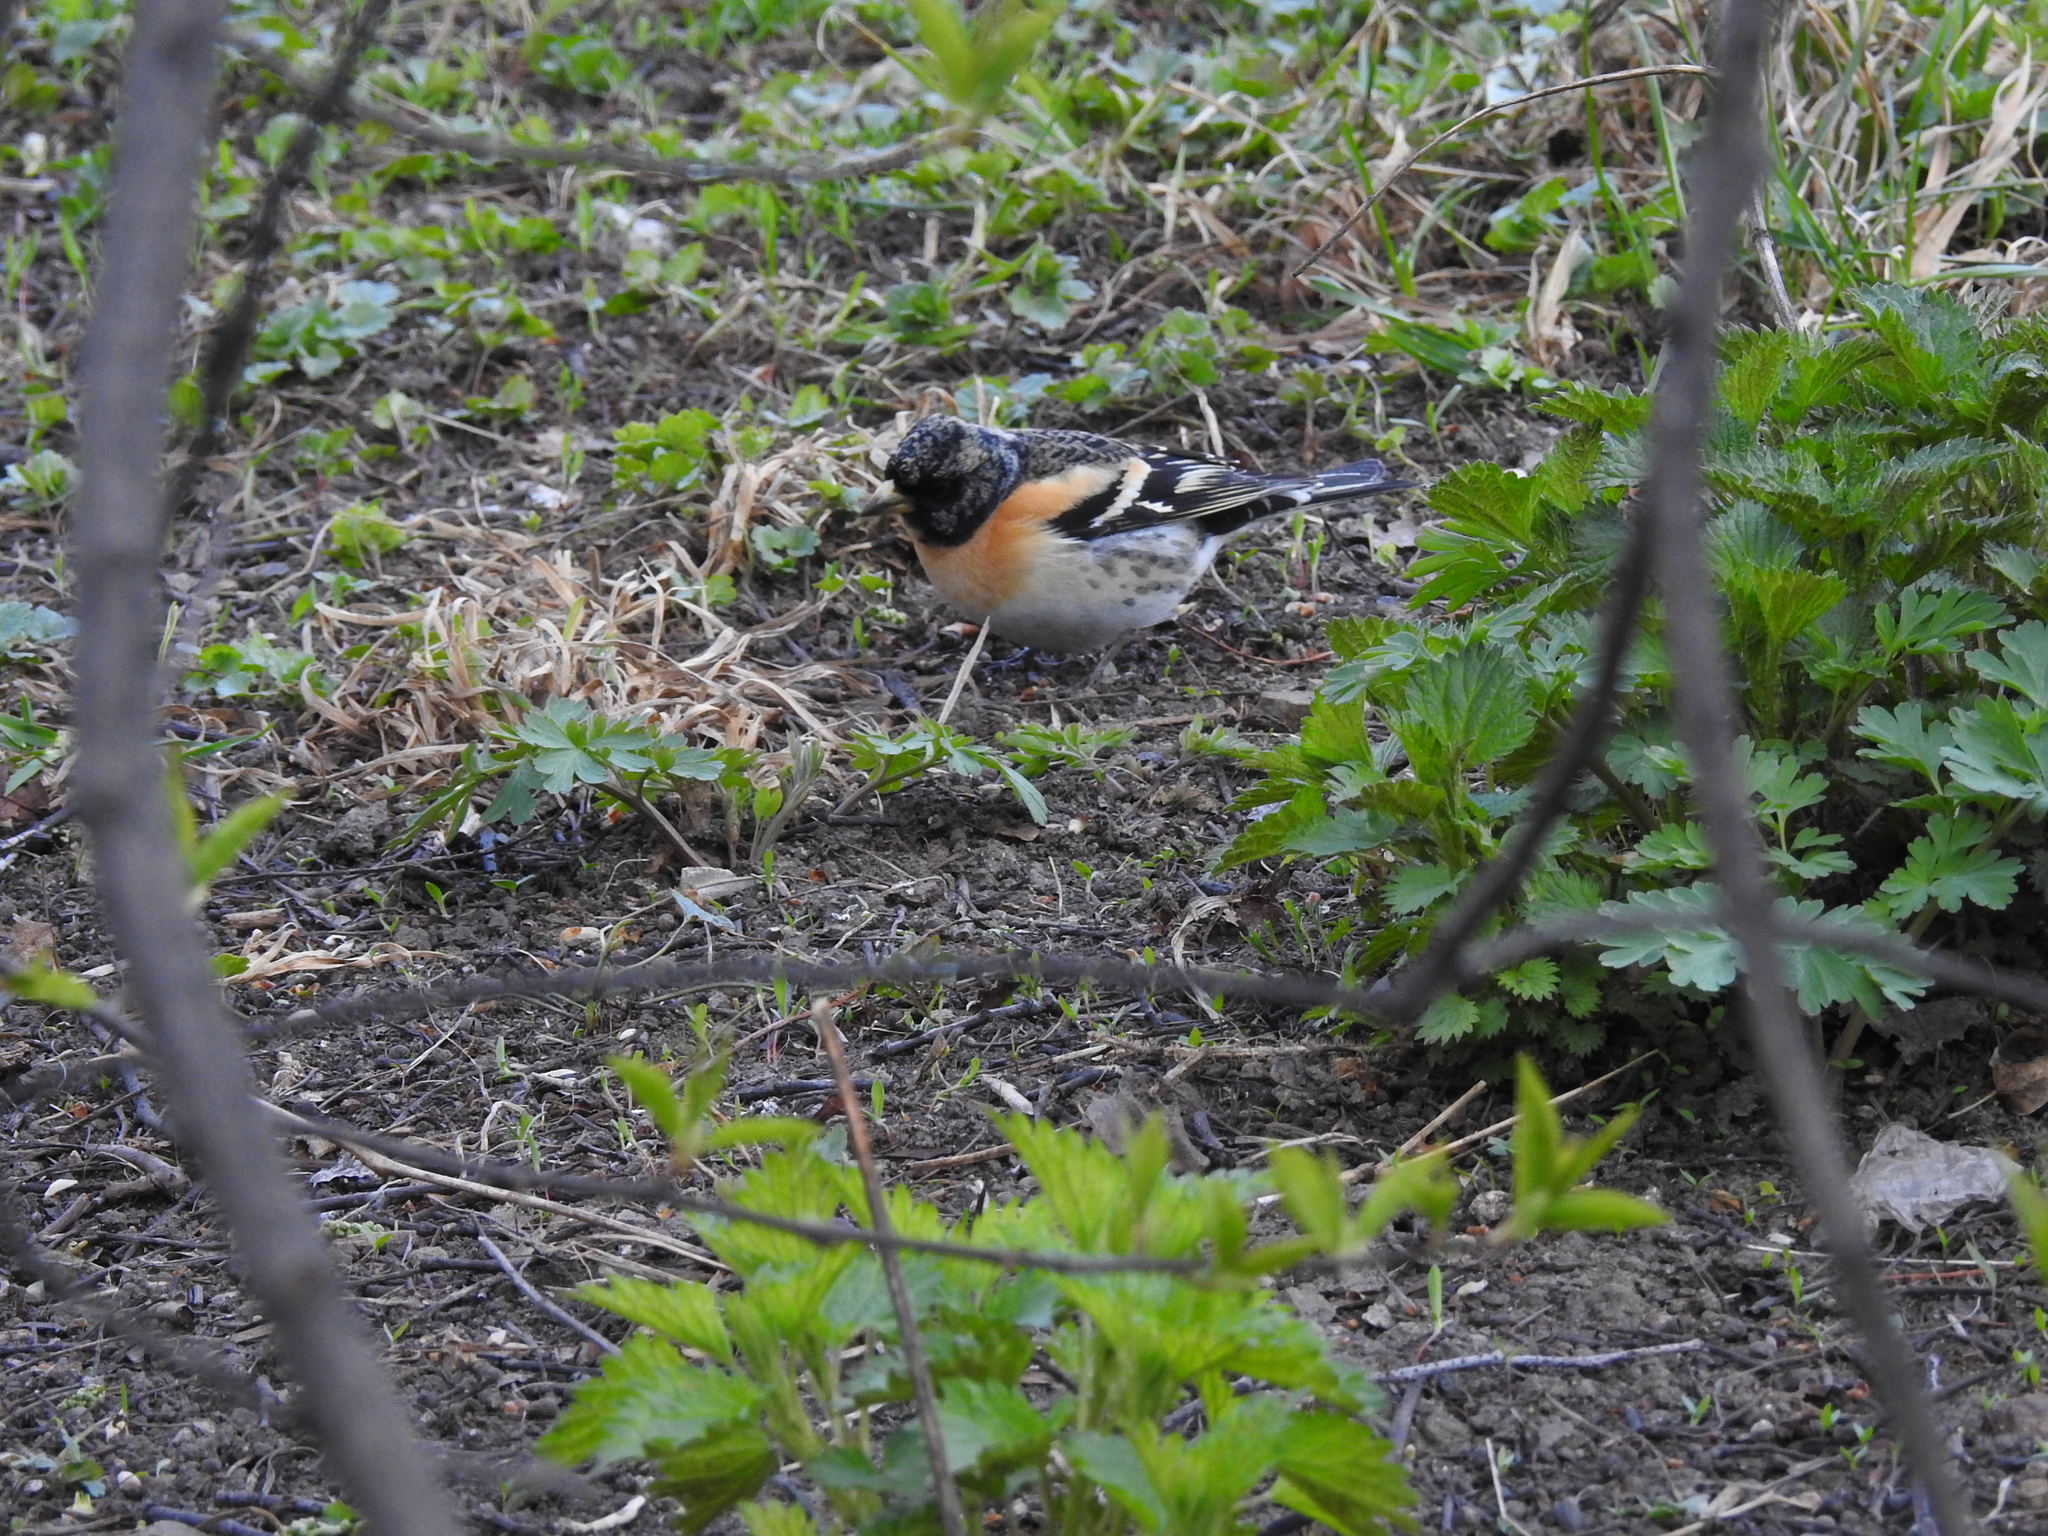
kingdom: Animalia
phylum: Chordata
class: Aves
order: Passeriformes
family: Fringillidae
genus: Fringilla
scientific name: Fringilla montifringilla
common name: Brambling
